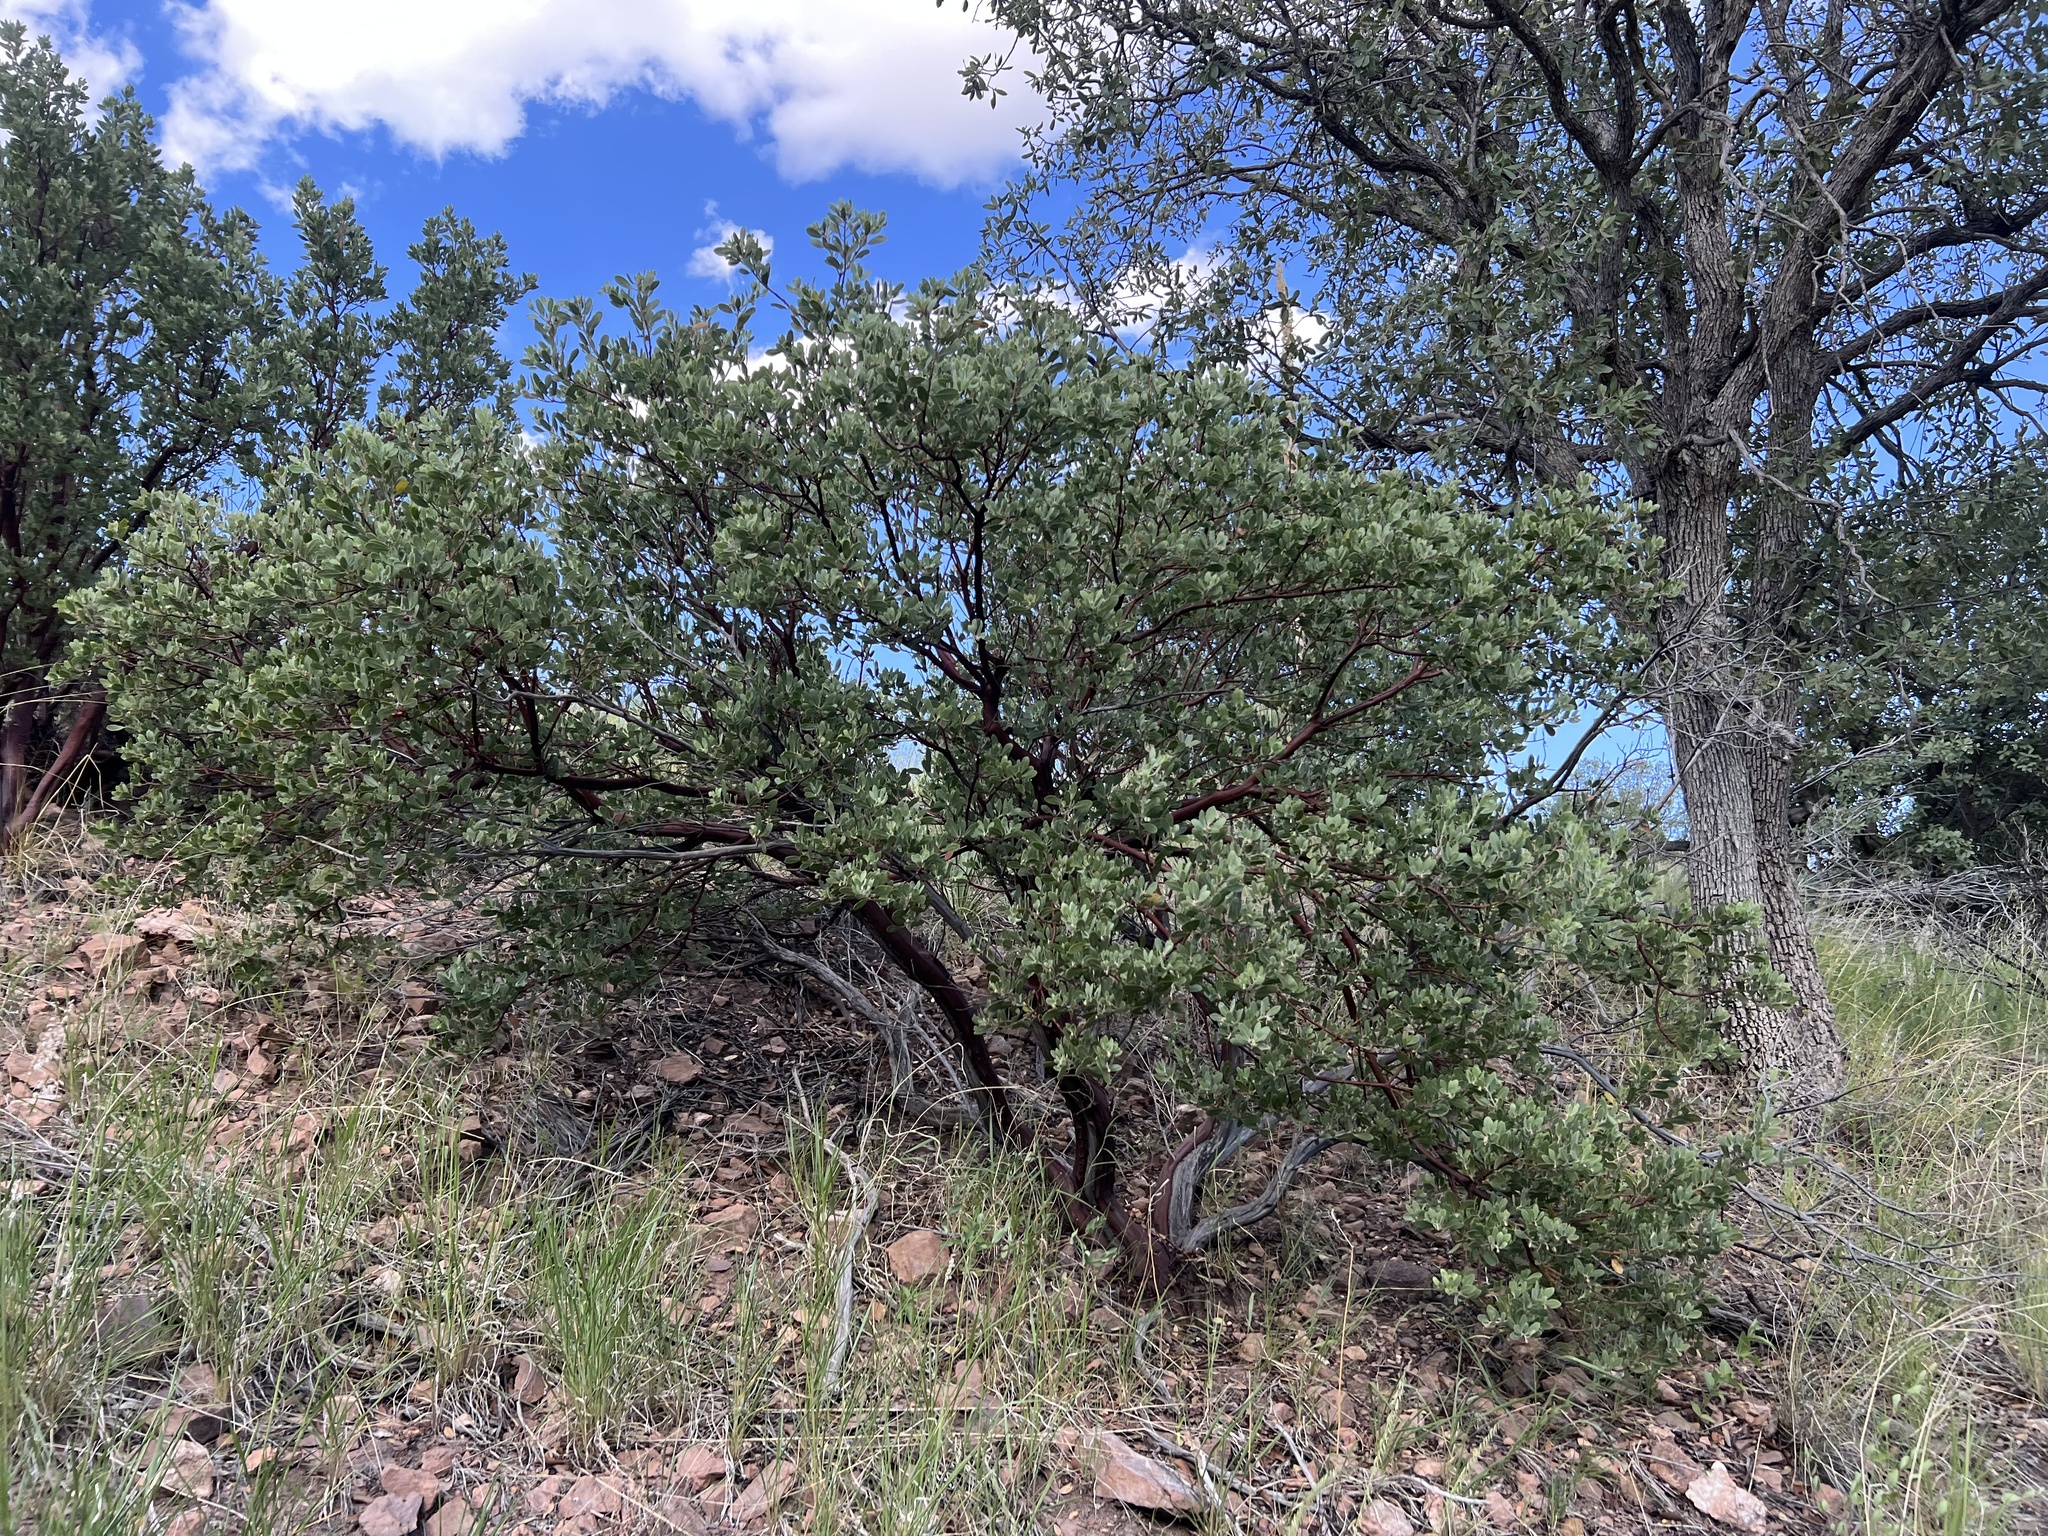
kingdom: Plantae
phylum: Tracheophyta
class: Magnoliopsida
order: Ericales
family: Ericaceae
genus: Arctostaphylos
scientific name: Arctostaphylos pungens
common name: Mexican manzanita
